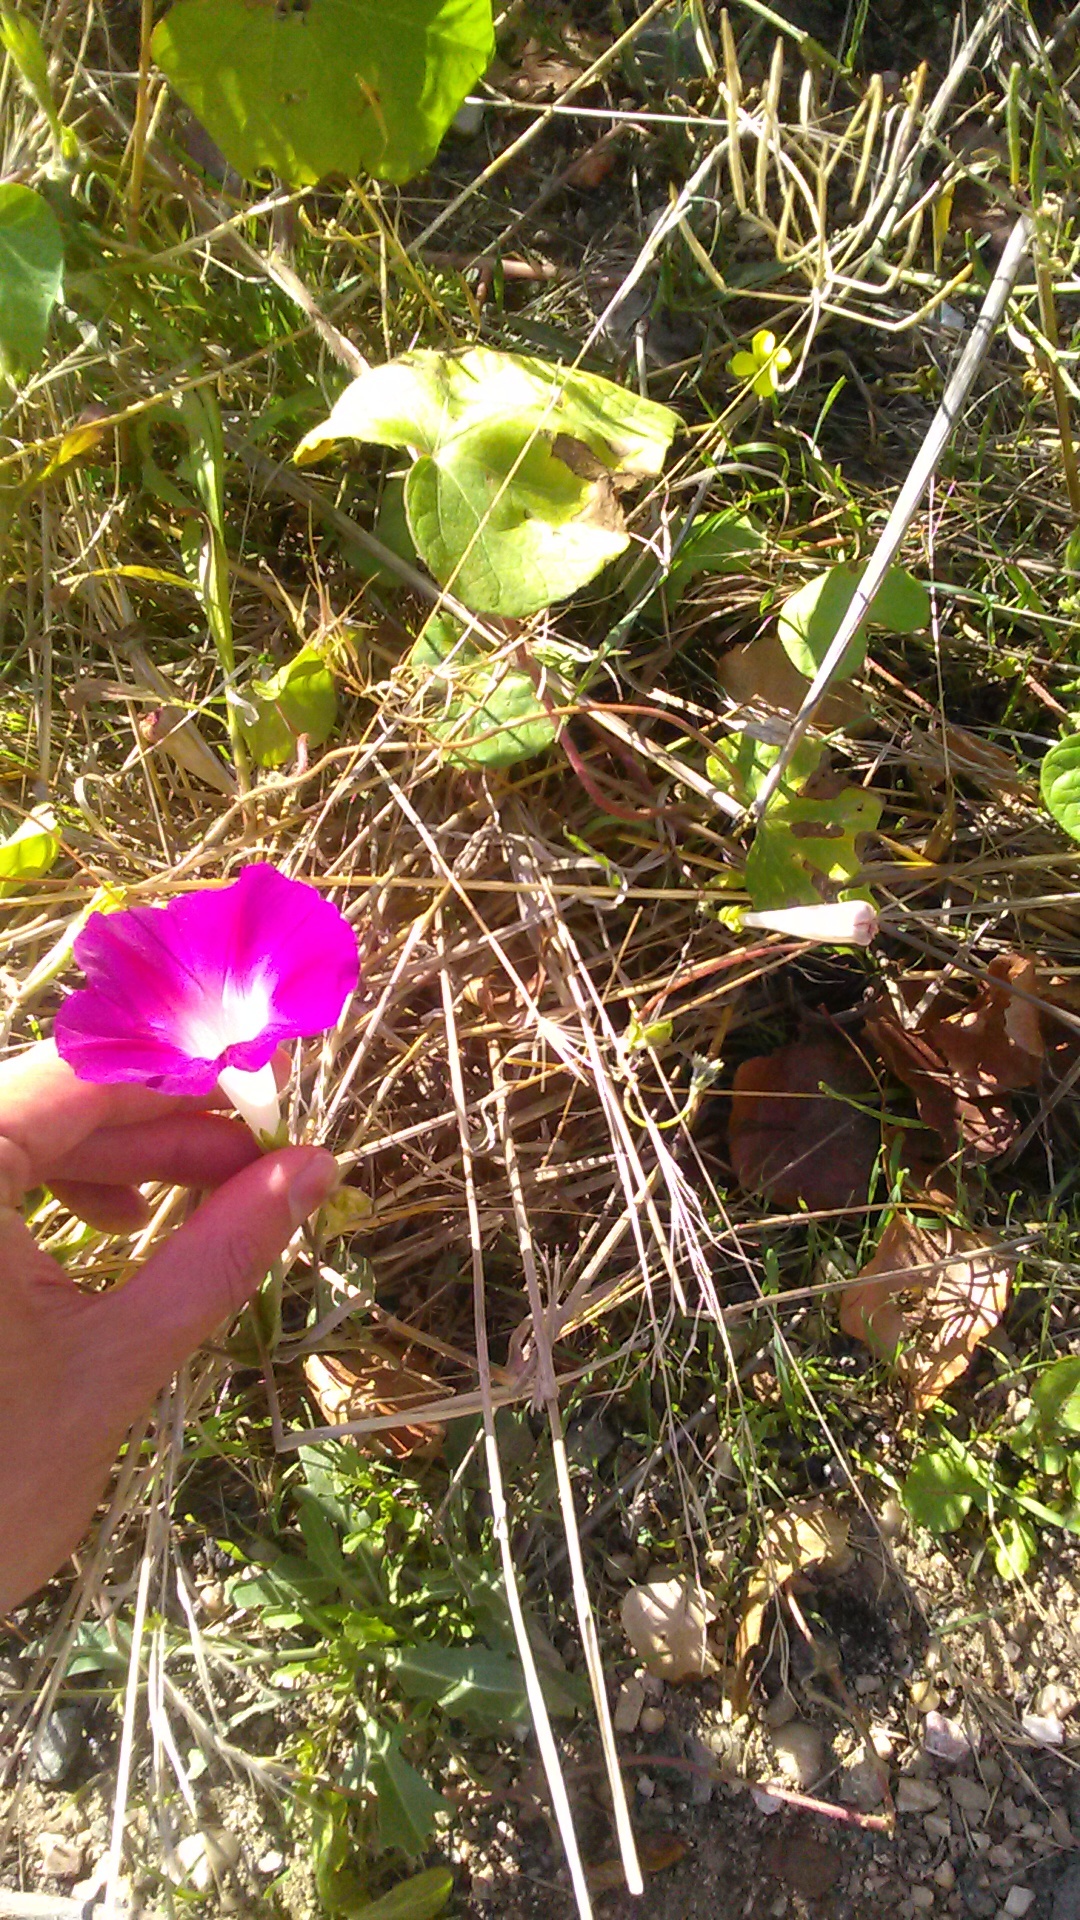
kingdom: Plantae
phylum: Tracheophyta
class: Magnoliopsida
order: Solanales
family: Convolvulaceae
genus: Ipomoea
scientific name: Ipomoea purpurea
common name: Common morning-glory
